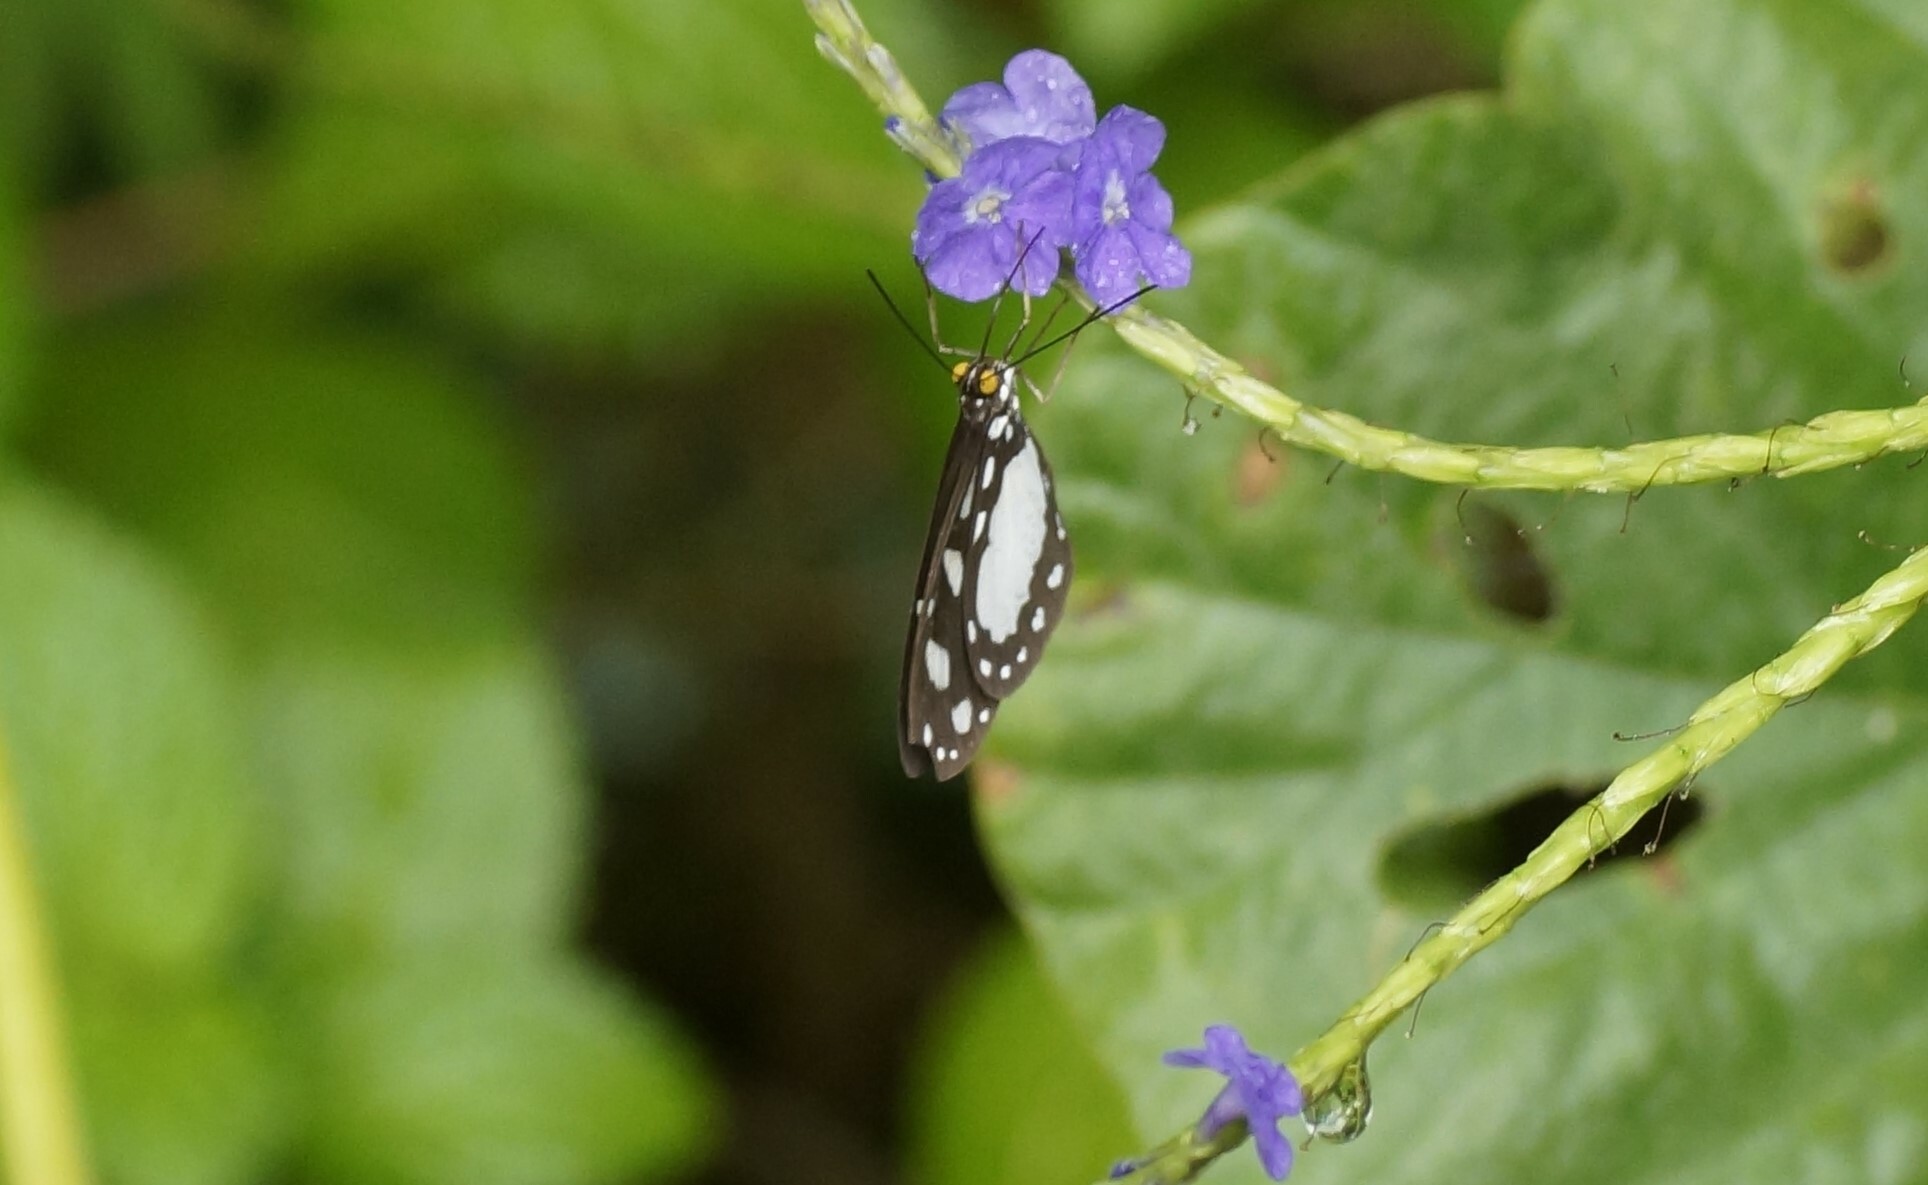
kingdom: Animalia
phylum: Arthropoda
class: Insecta
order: Lepidoptera
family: Nymphalidae
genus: Tellervo
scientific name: Tellervo zoilus
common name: Hamadryad
